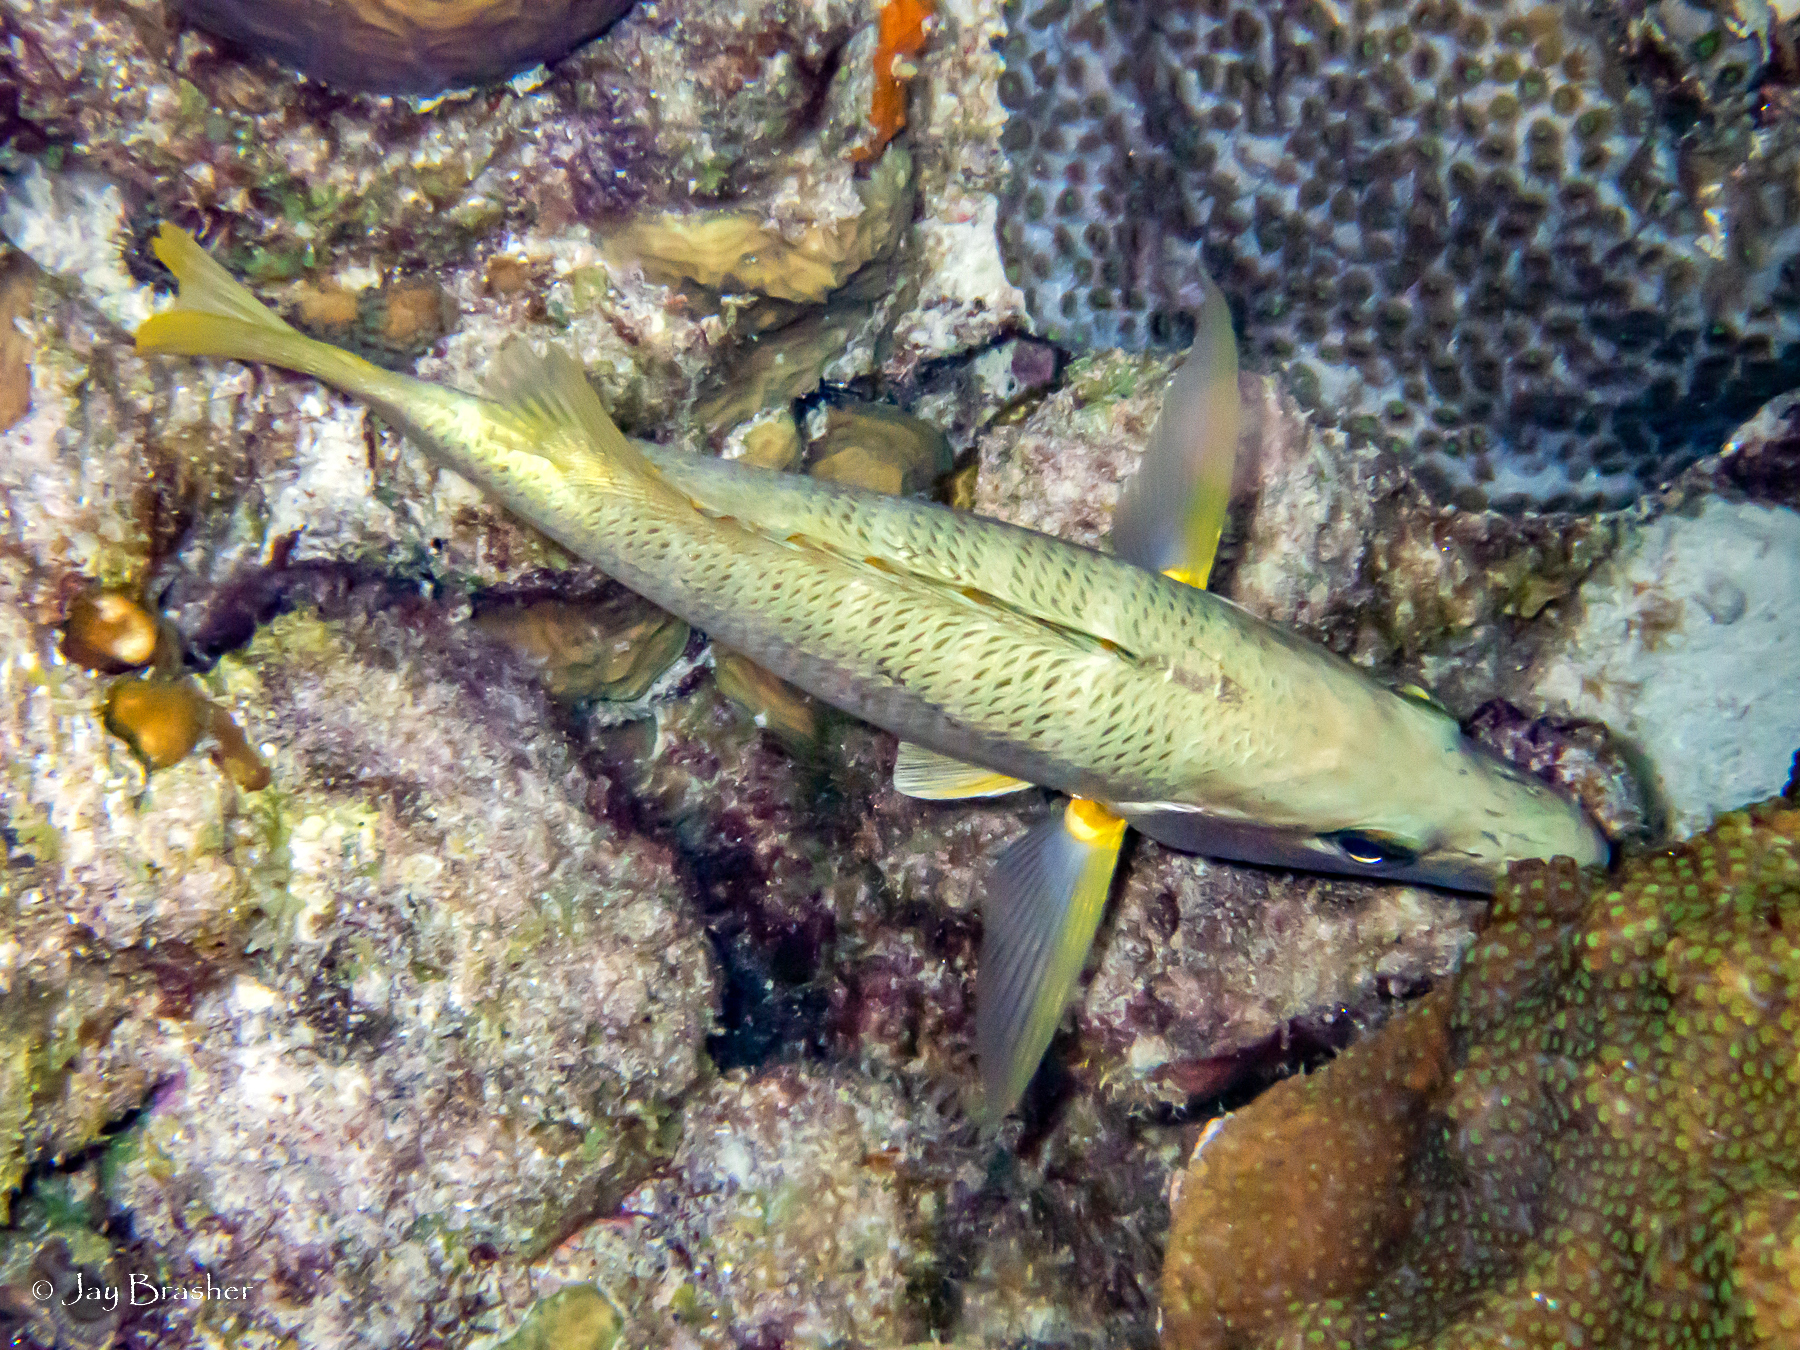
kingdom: Animalia
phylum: Chordata
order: Perciformes
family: Lutjanidae
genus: Lutjanus
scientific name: Lutjanus apodus
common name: Schoolmaster
